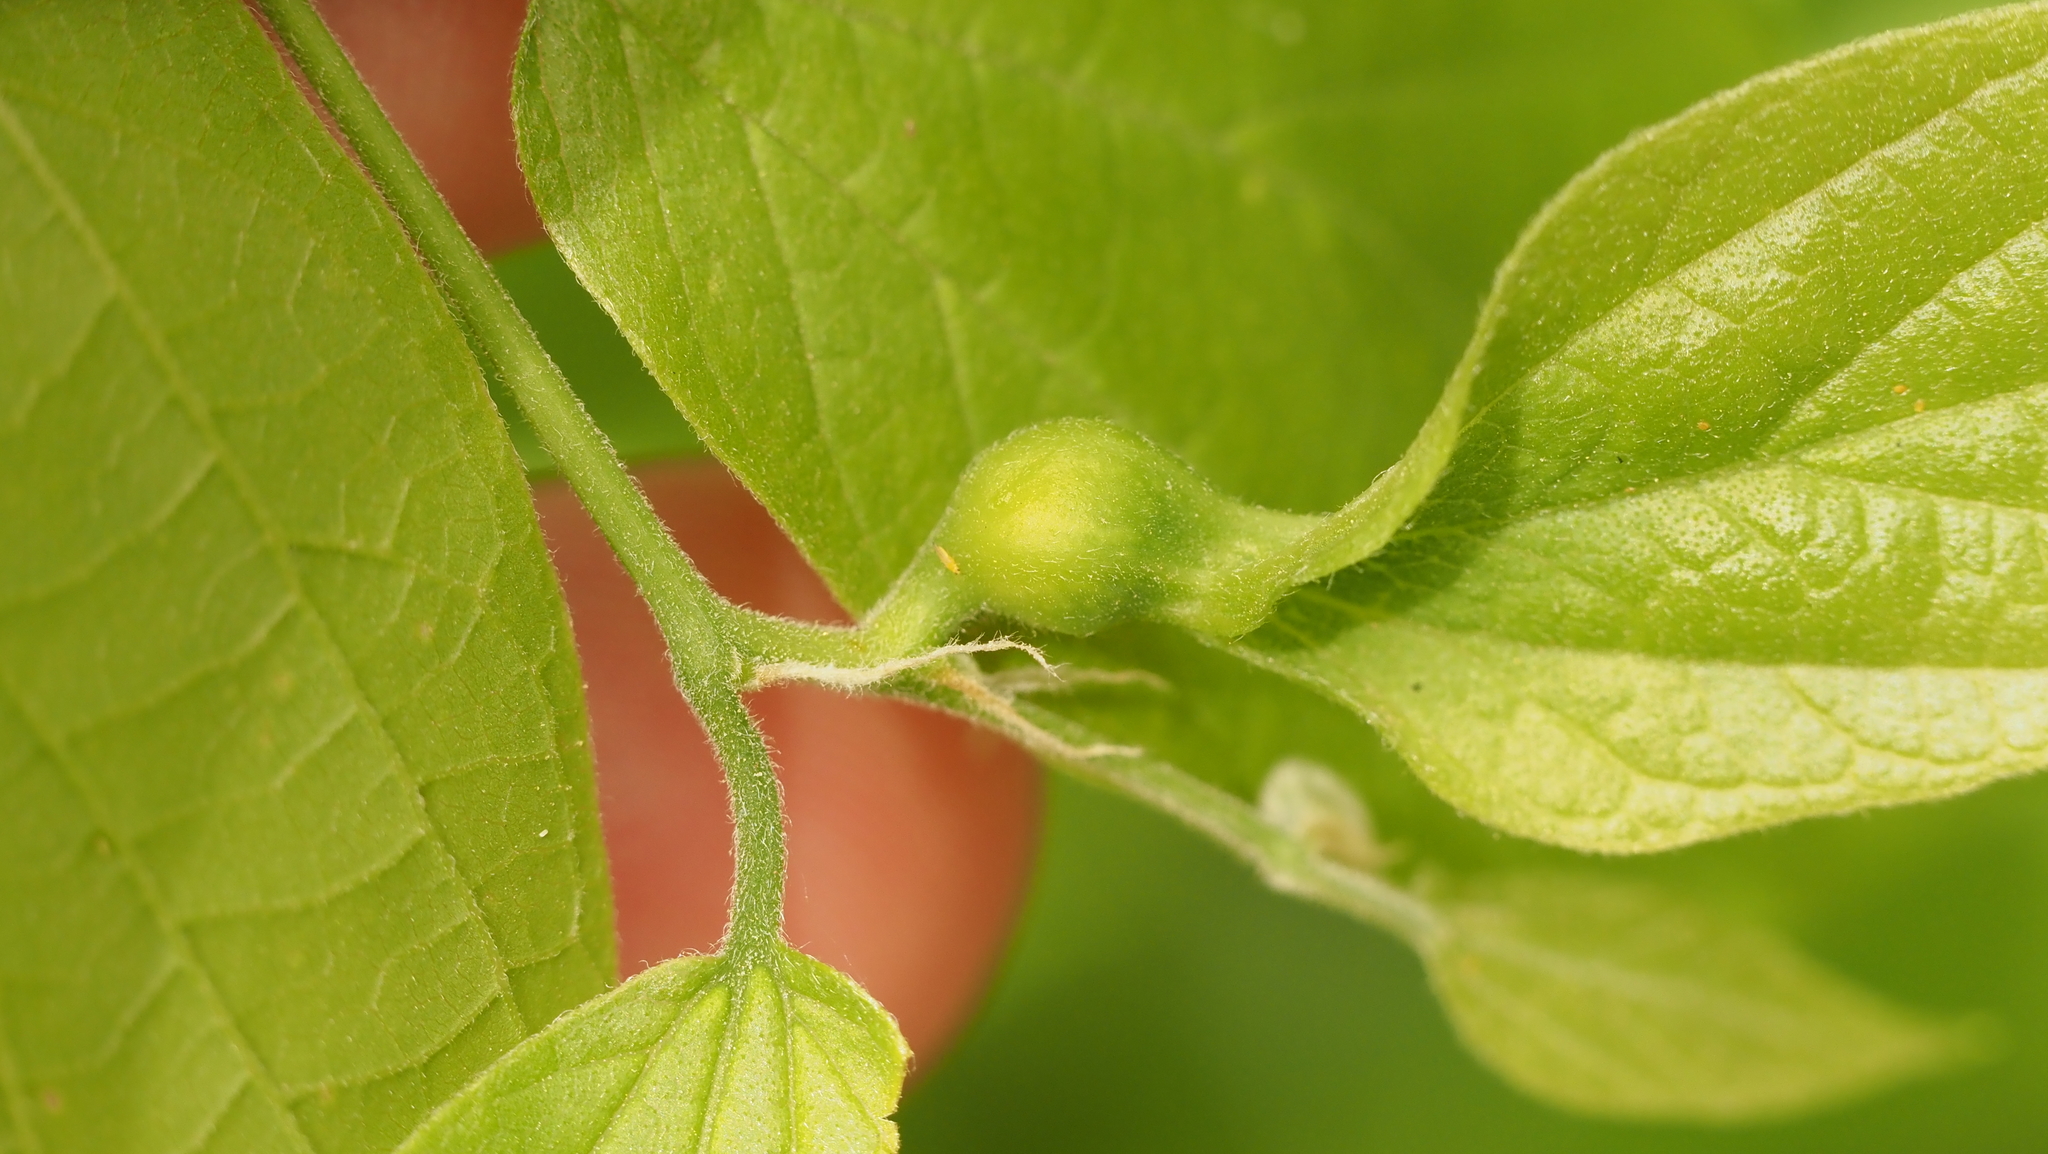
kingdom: Animalia
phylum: Arthropoda
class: Insecta
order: Hemiptera
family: Aphalaridae
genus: Pachypsylla
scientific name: Pachypsylla venusta
